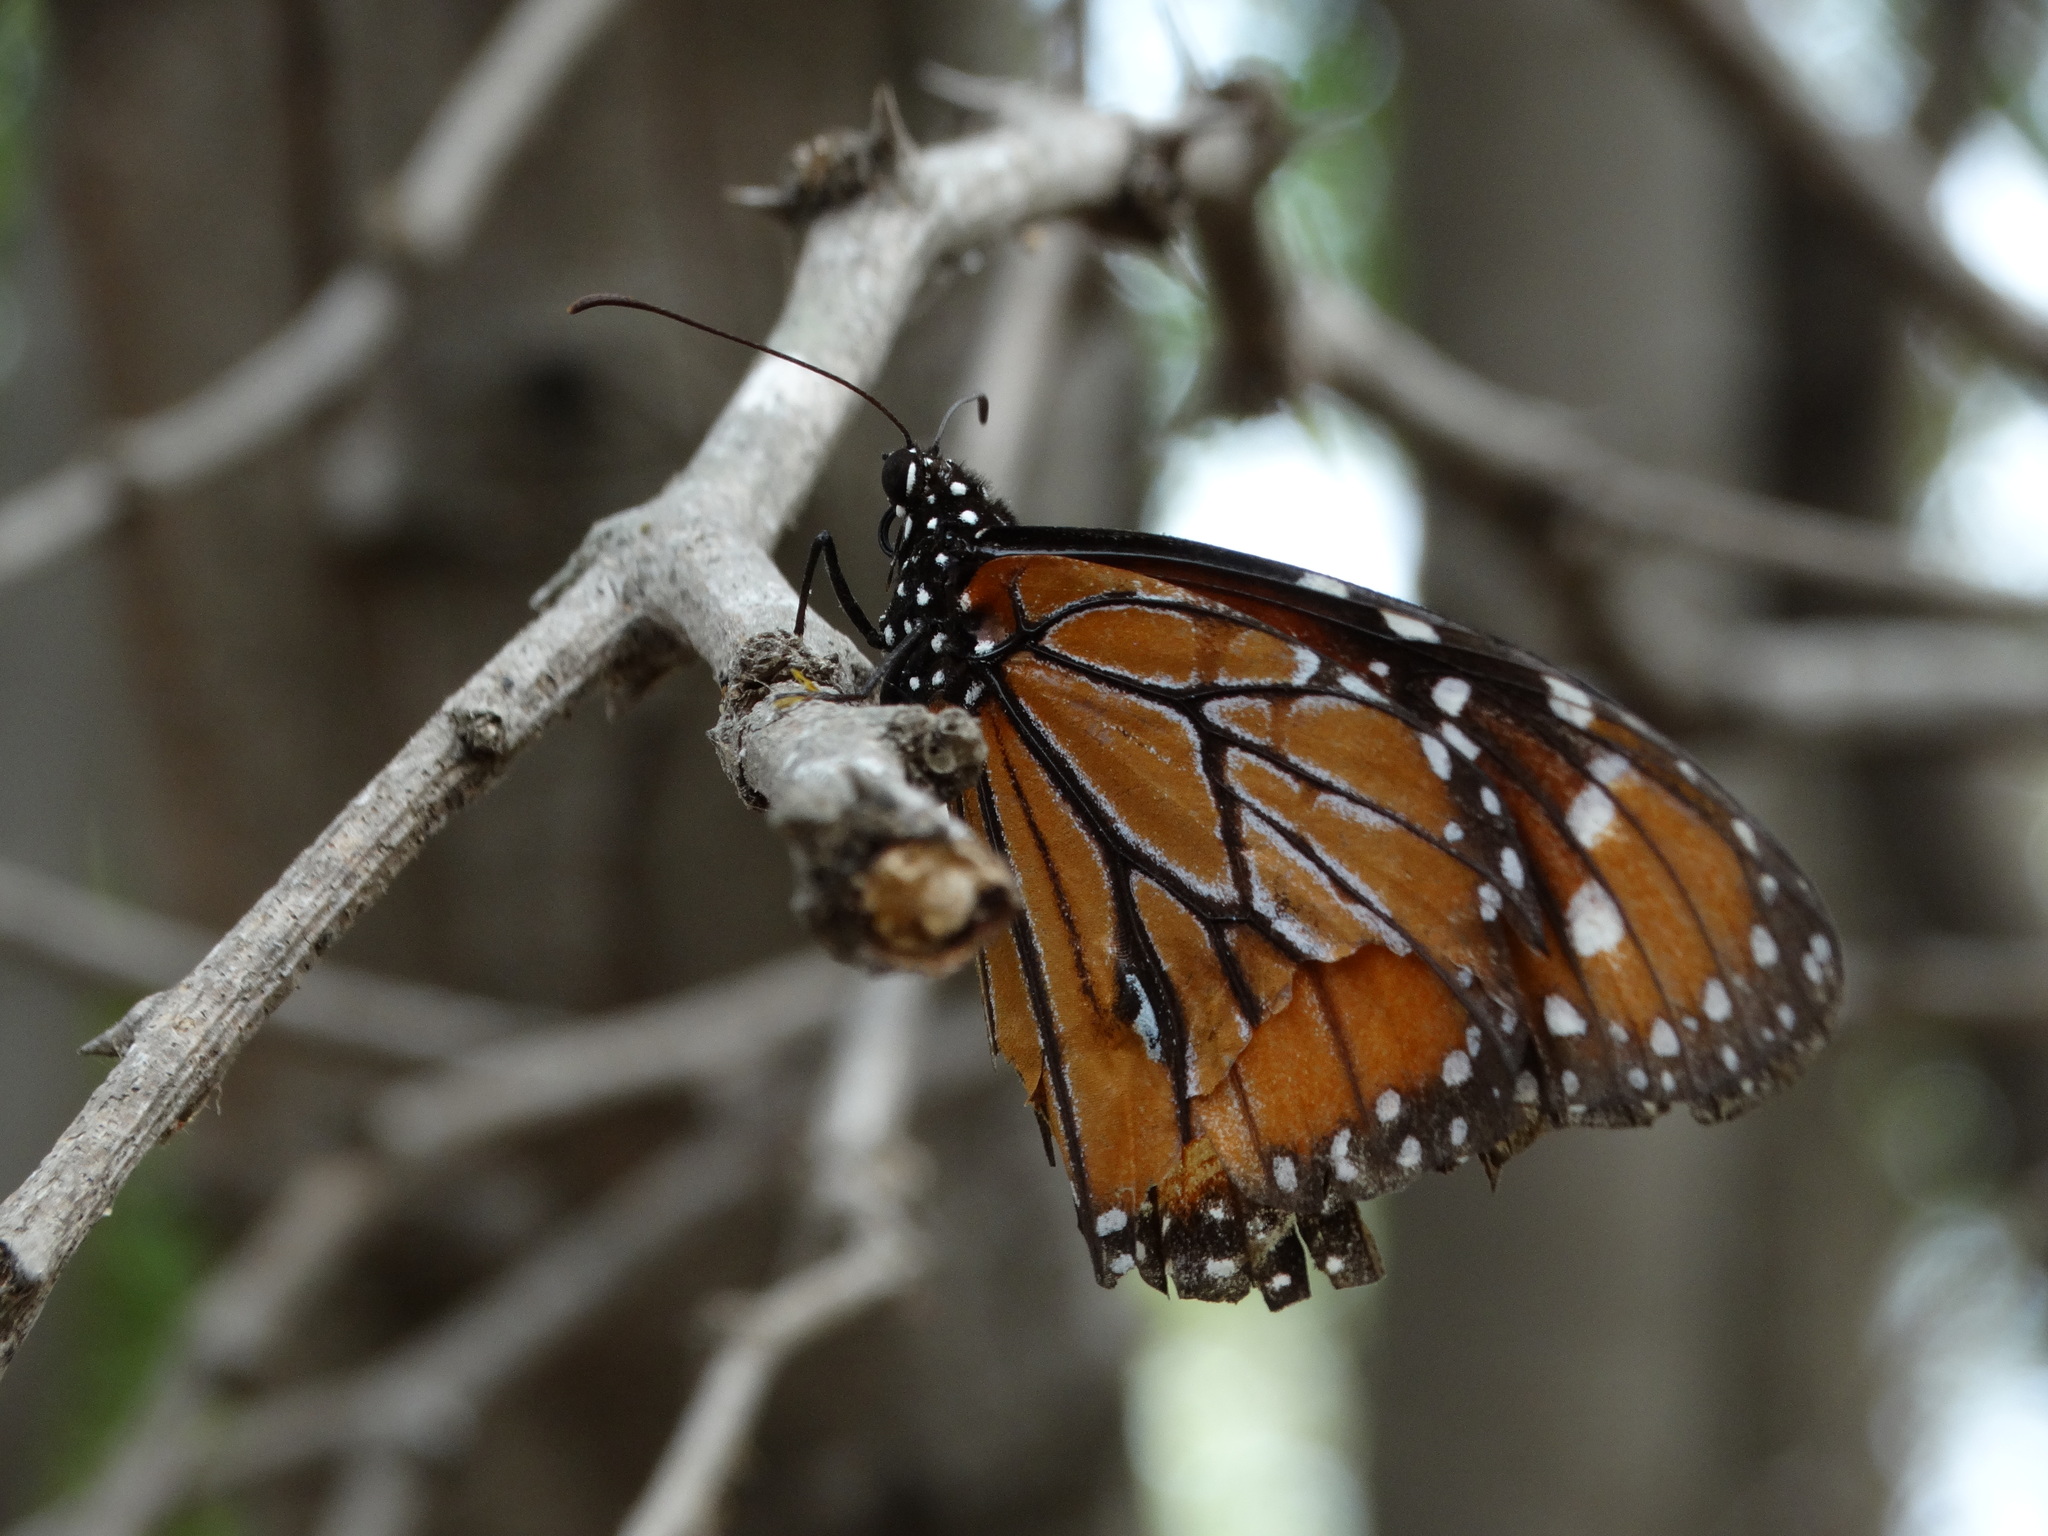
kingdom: Animalia
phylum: Arthropoda
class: Insecta
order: Lepidoptera
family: Nymphalidae
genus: Danaus
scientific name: Danaus eresimus
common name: Soldier
